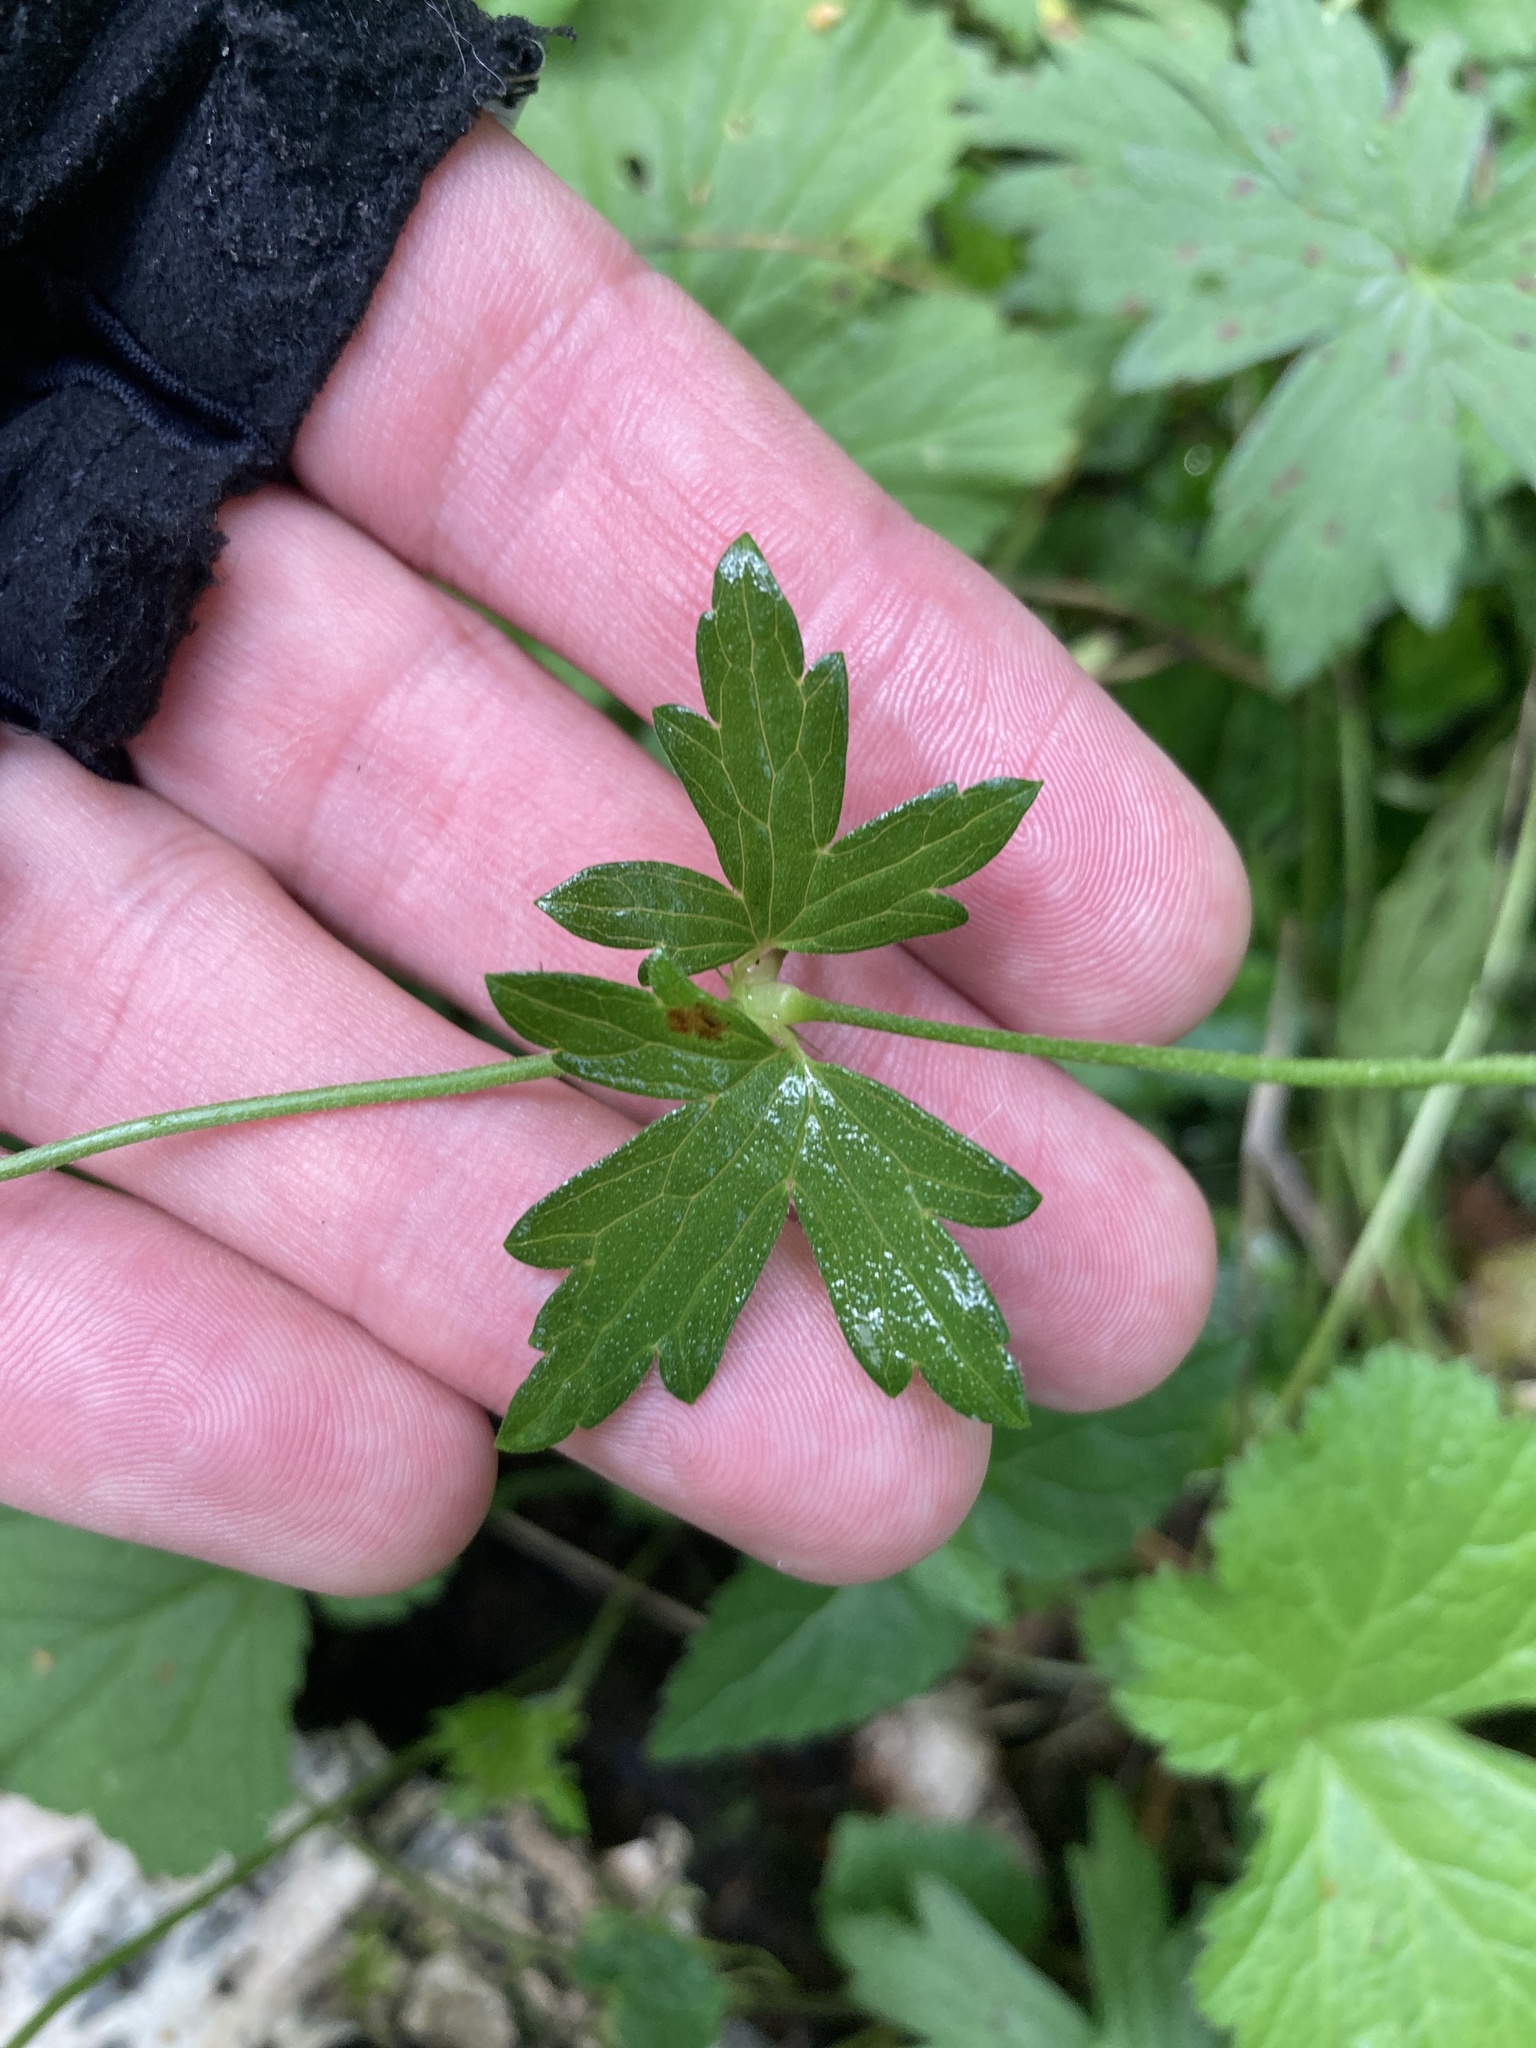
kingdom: Plantae
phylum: Tracheophyta
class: Magnoliopsida
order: Geraniales
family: Geraniaceae
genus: Geranium
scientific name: Geranium palustre
